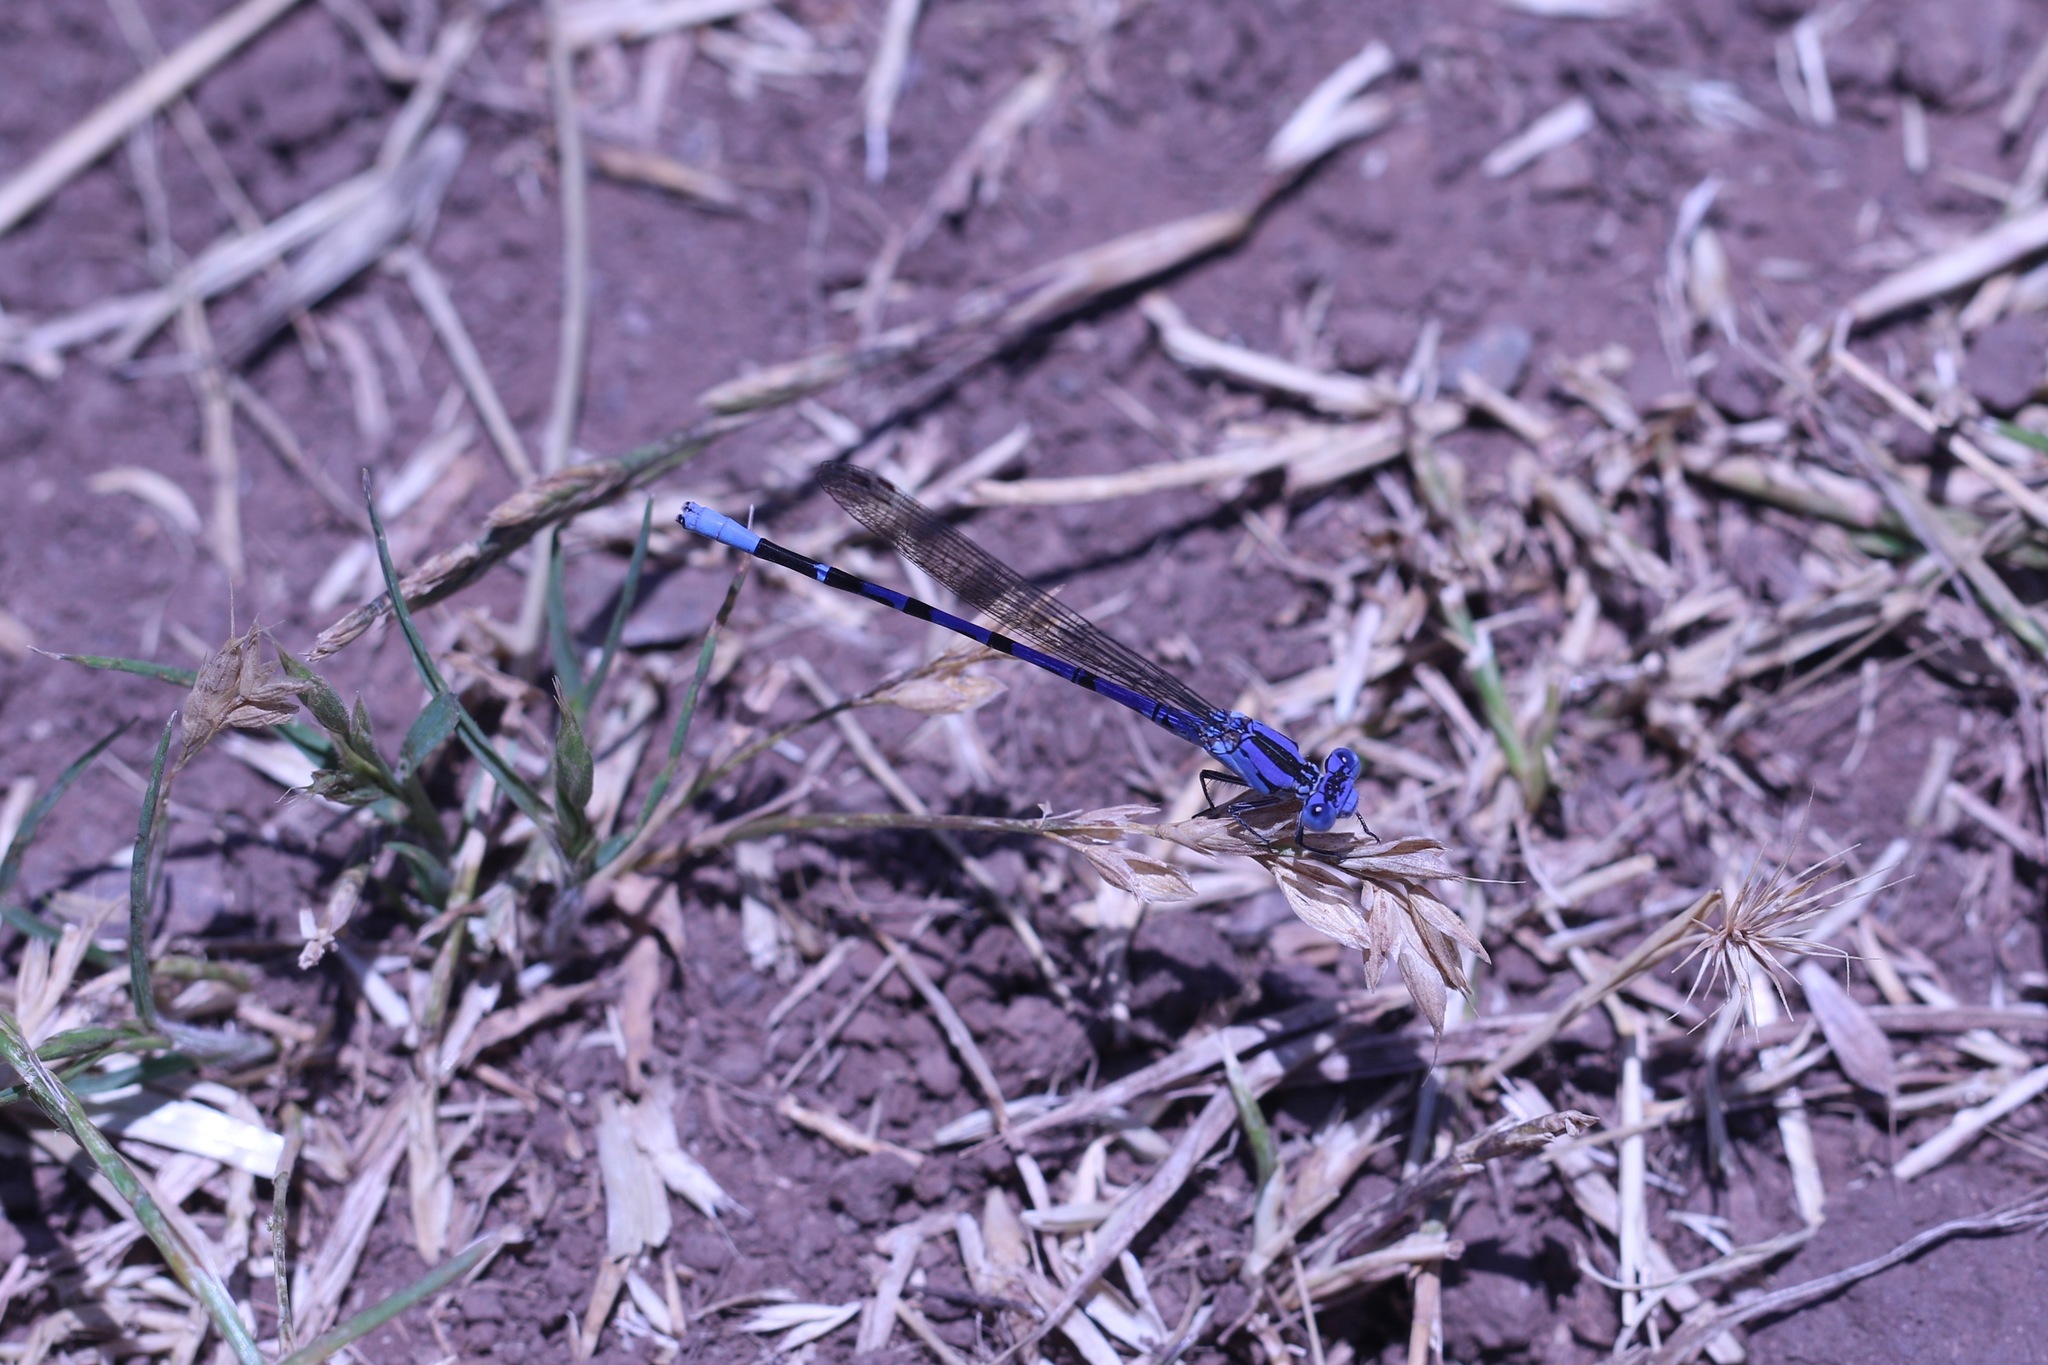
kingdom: Animalia
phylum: Arthropoda
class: Insecta
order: Odonata
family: Coenagrionidae
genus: Argia
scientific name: Argia vivida
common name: Vivid dancer
